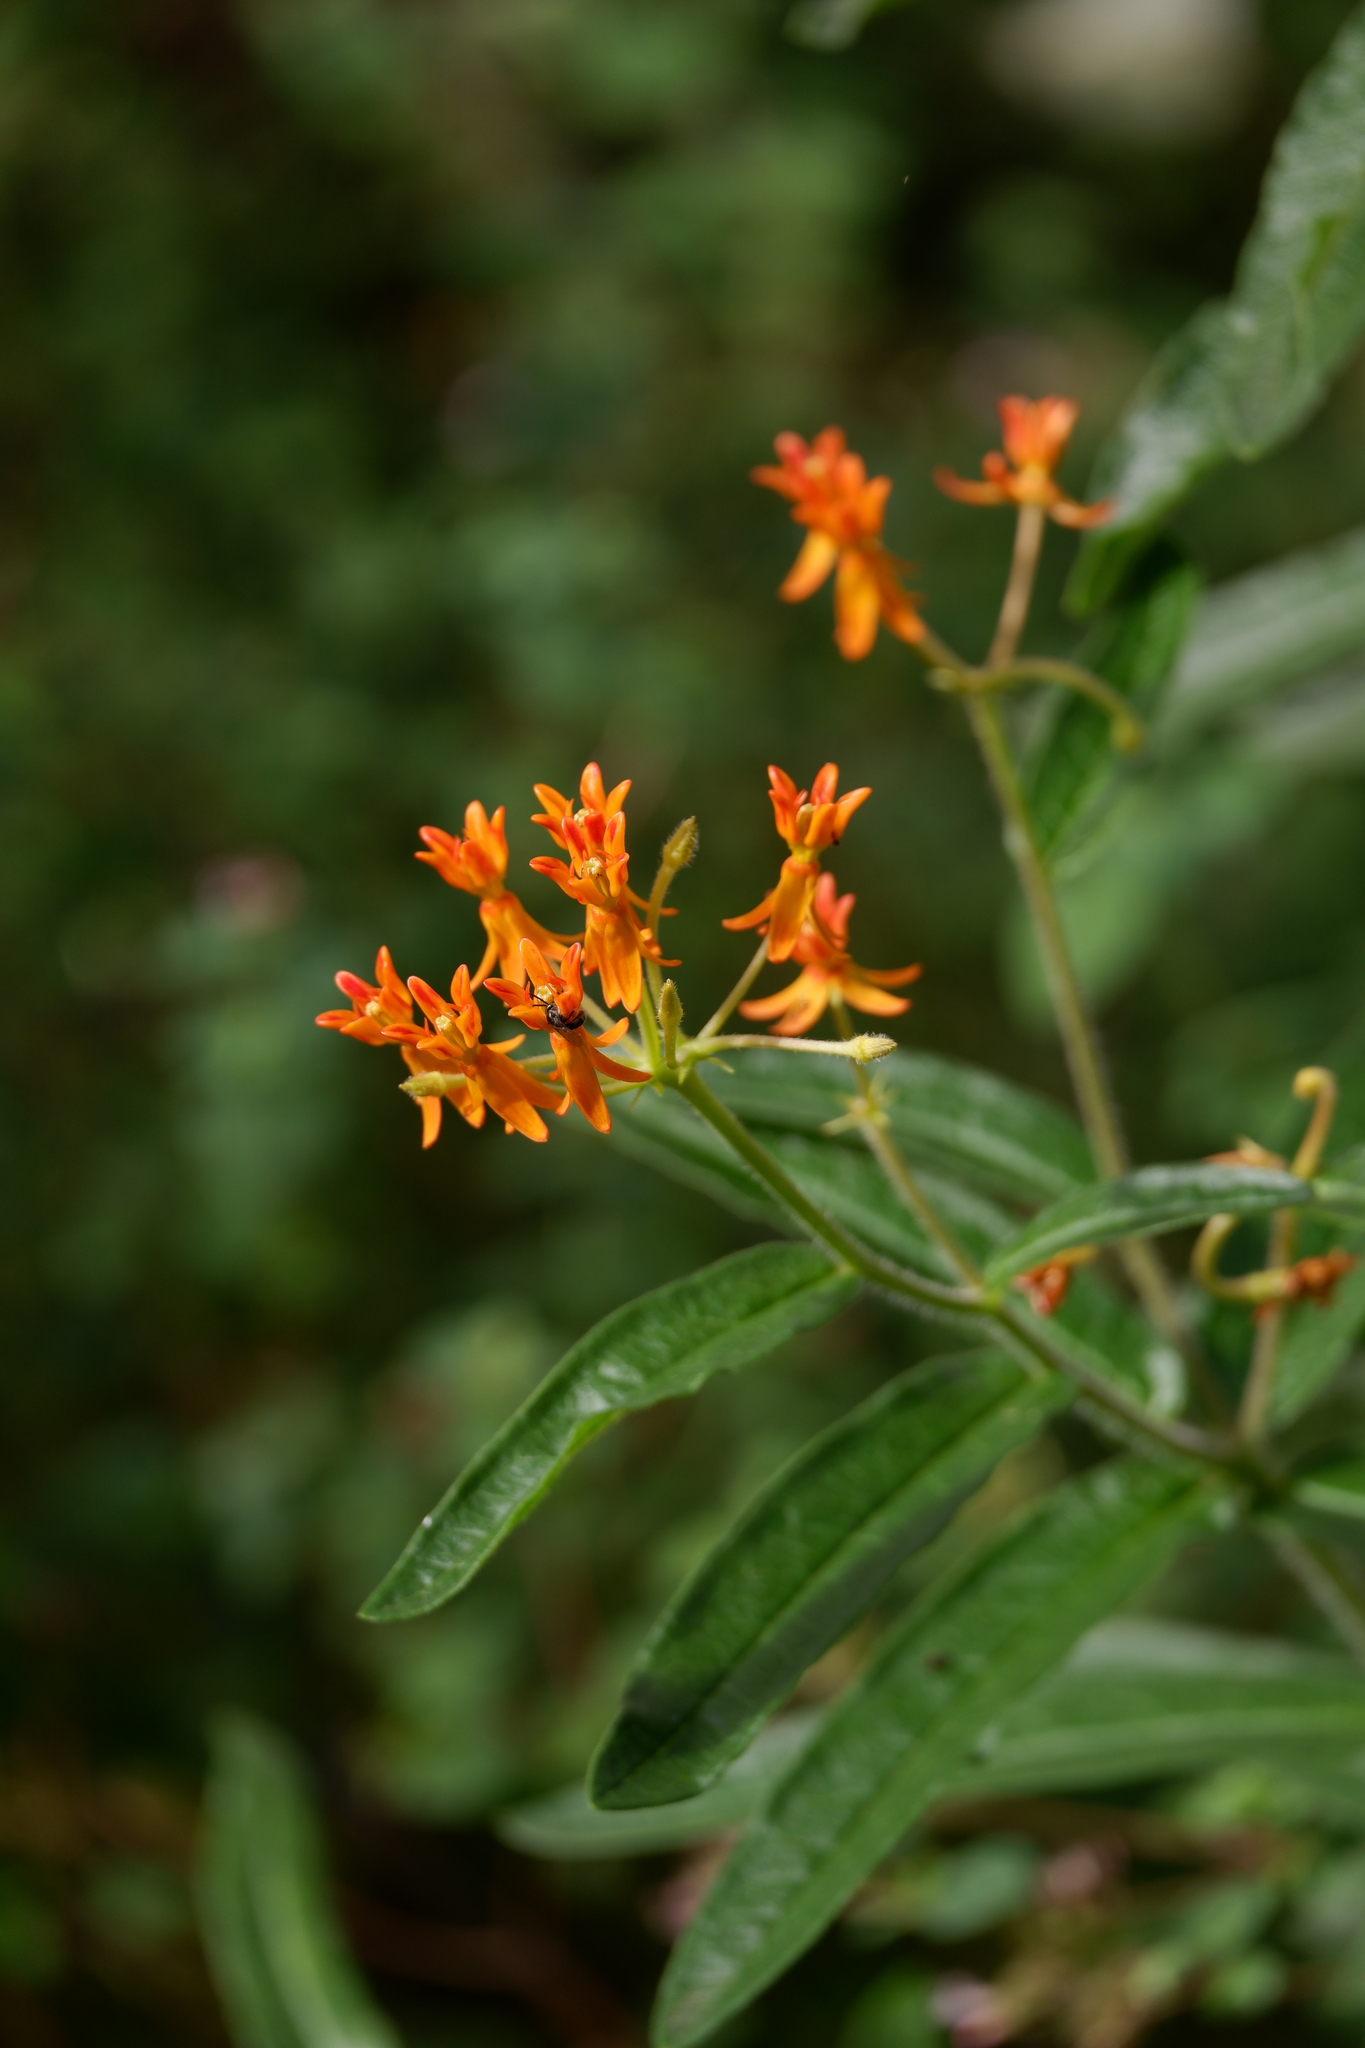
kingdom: Plantae
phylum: Tracheophyta
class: Magnoliopsida
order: Gentianales
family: Apocynaceae
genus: Asclepias
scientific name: Asclepias tuberosa
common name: Butterfly milkweed
